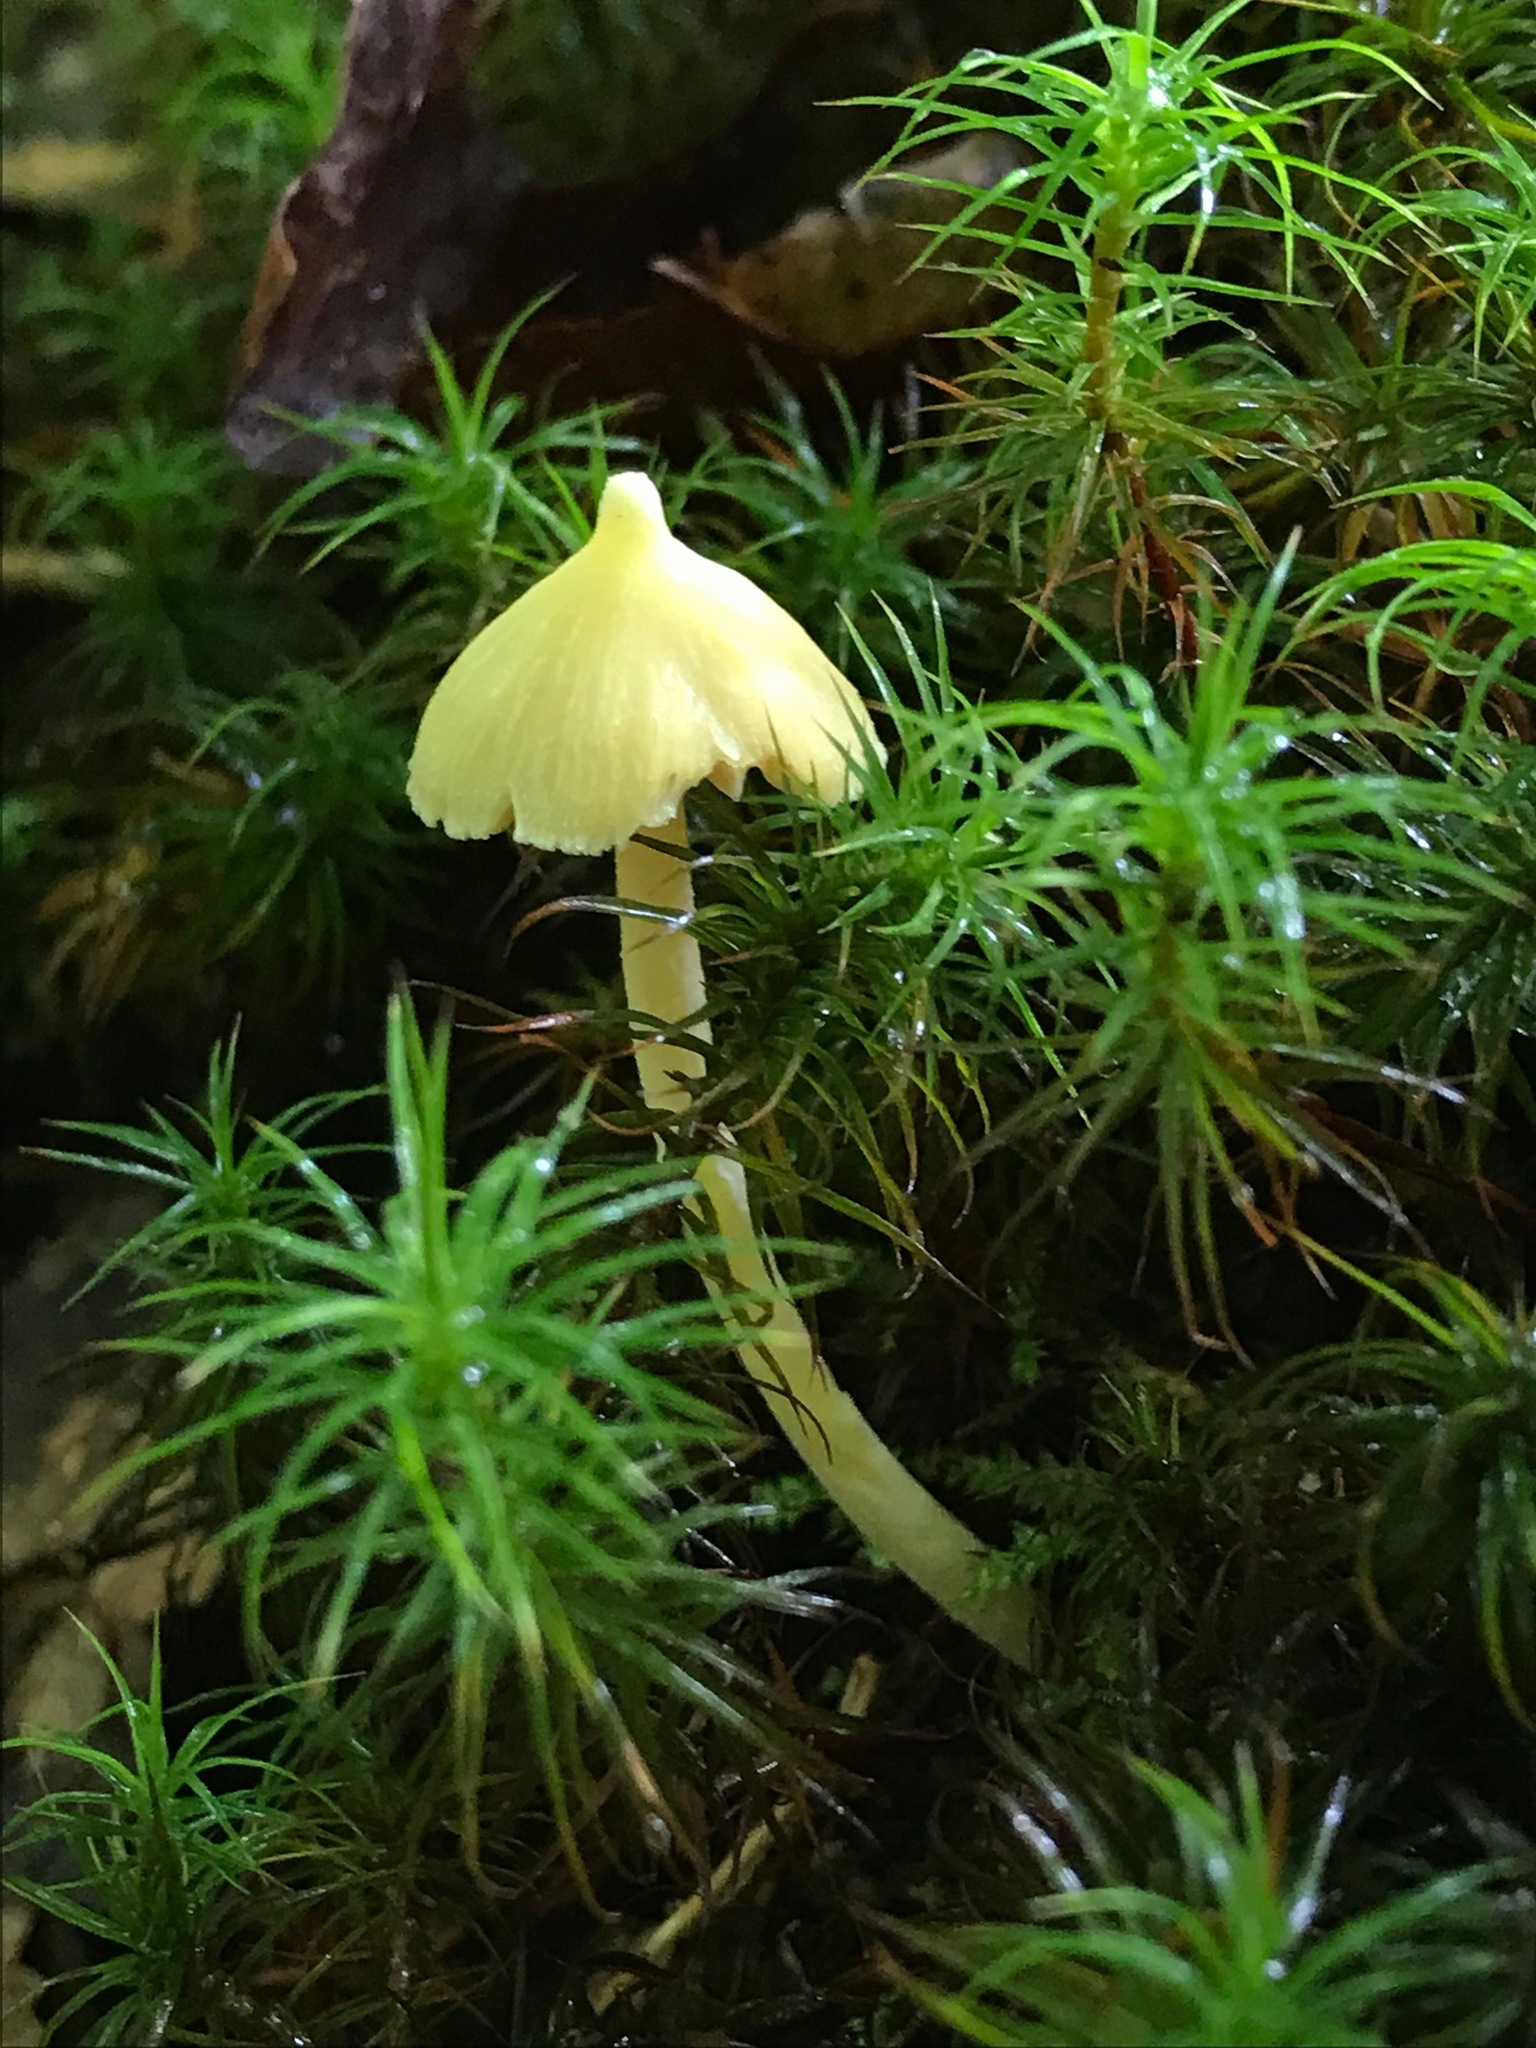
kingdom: Fungi
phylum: Basidiomycota
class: Agaricomycetes
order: Agaricales
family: Entolomataceae
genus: Entoloma
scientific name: Entoloma murrayi
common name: Yellow unicorn entoloma
